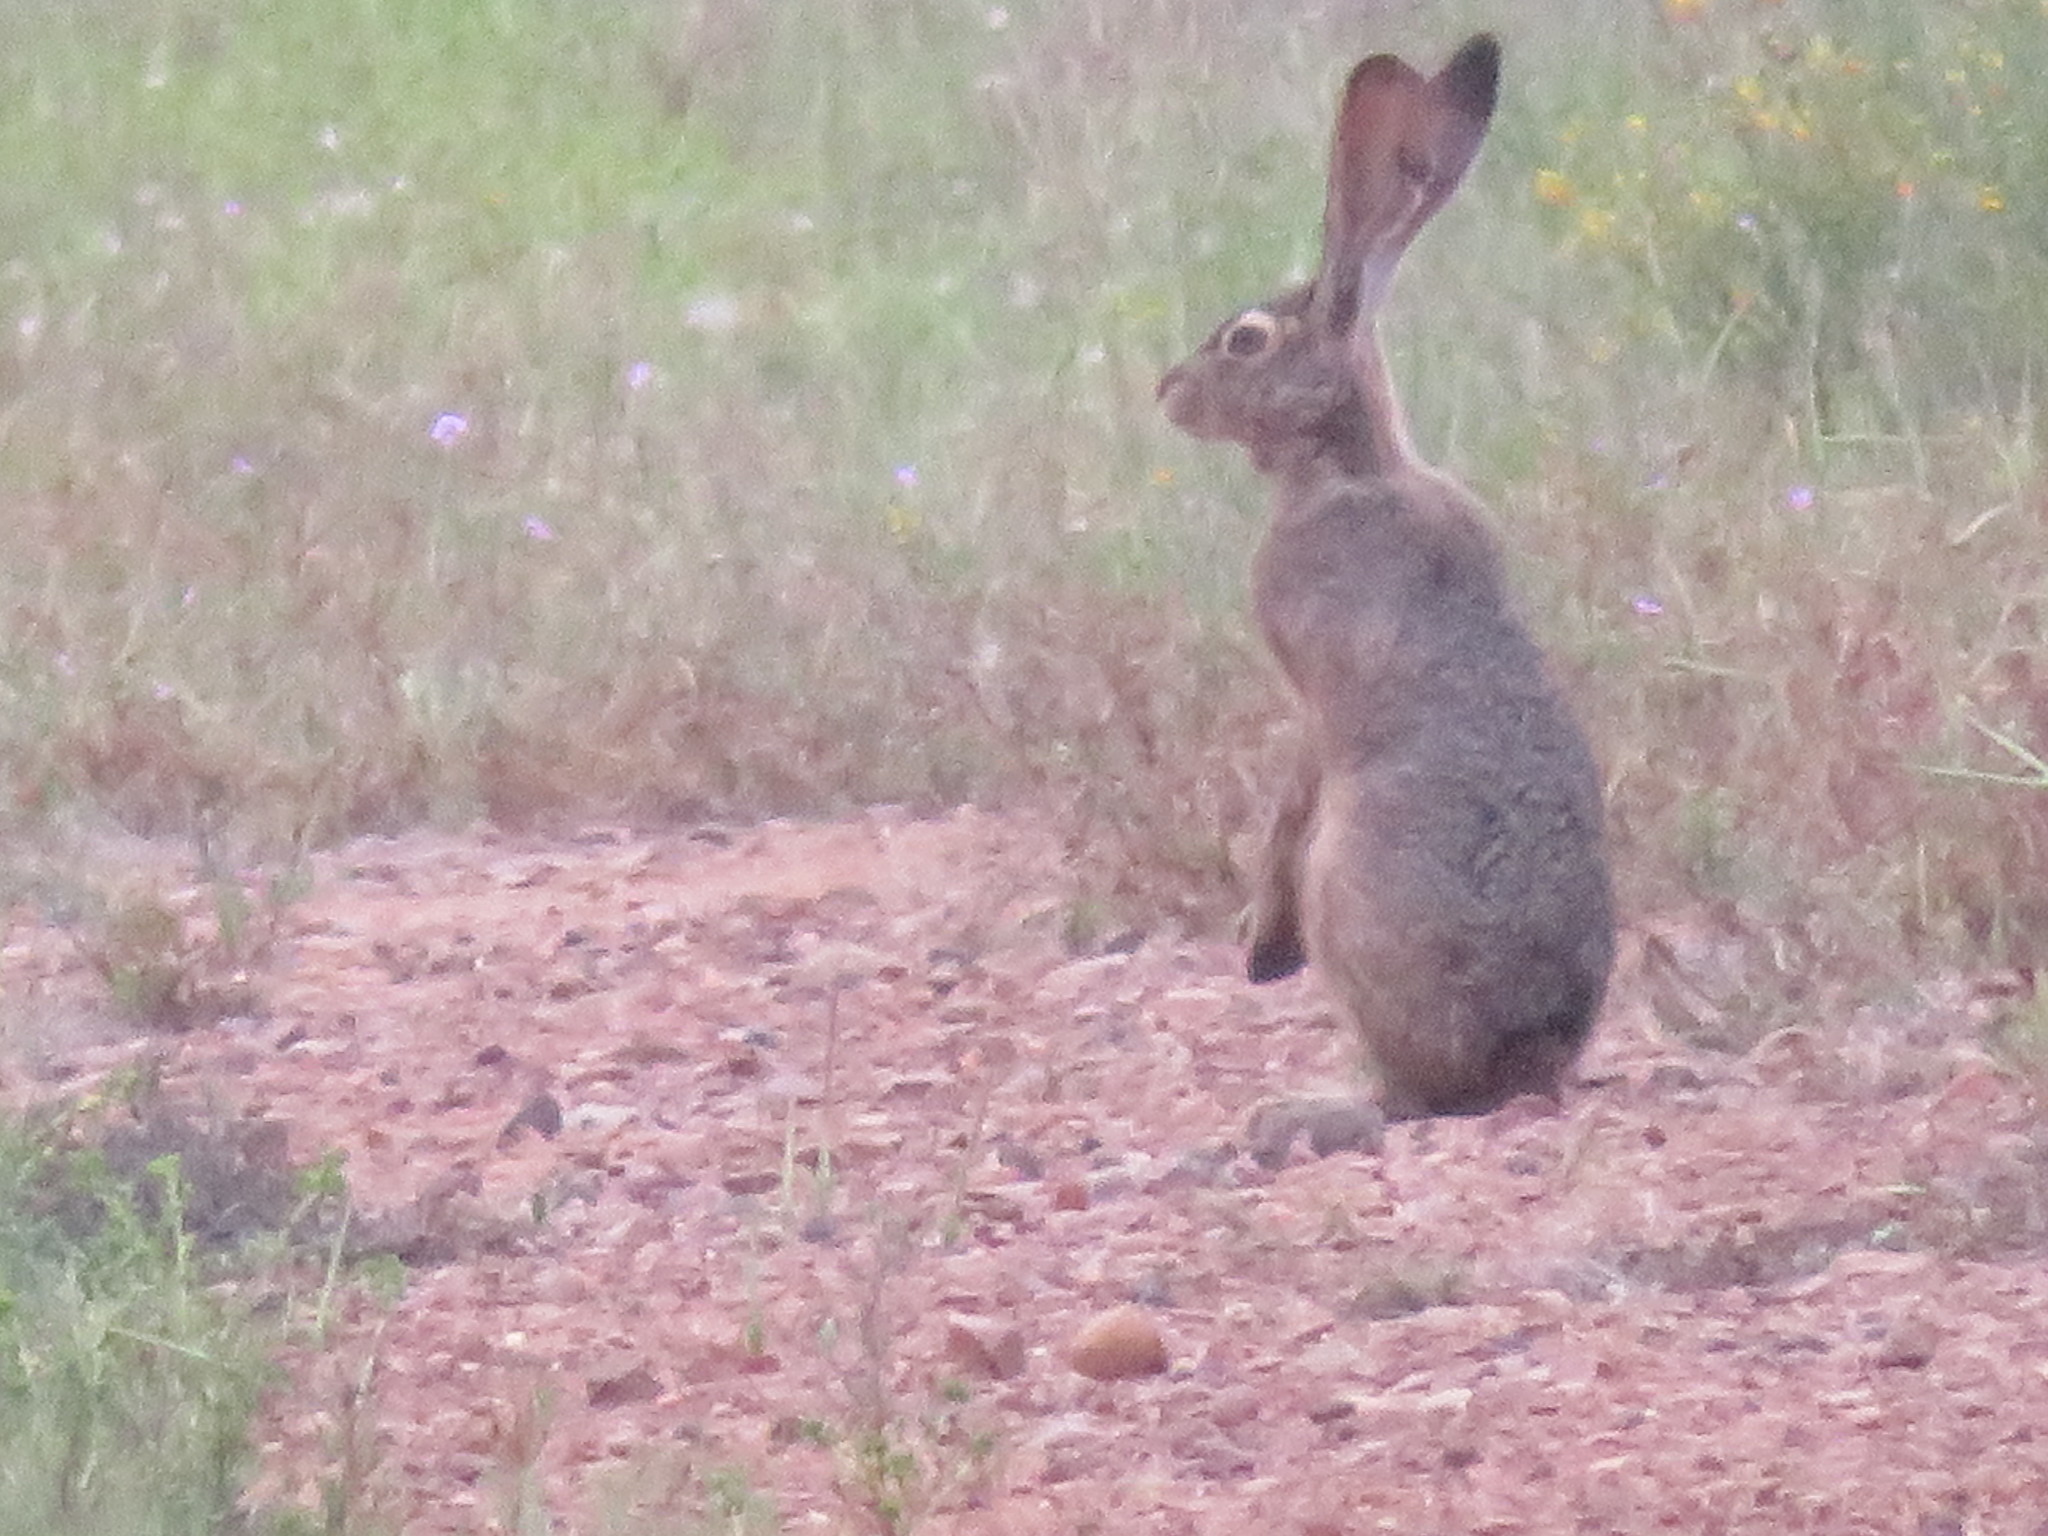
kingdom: Animalia
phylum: Chordata
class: Mammalia
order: Lagomorpha
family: Leporidae
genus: Lepus
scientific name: Lepus californicus
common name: Black-tailed jackrabbit
